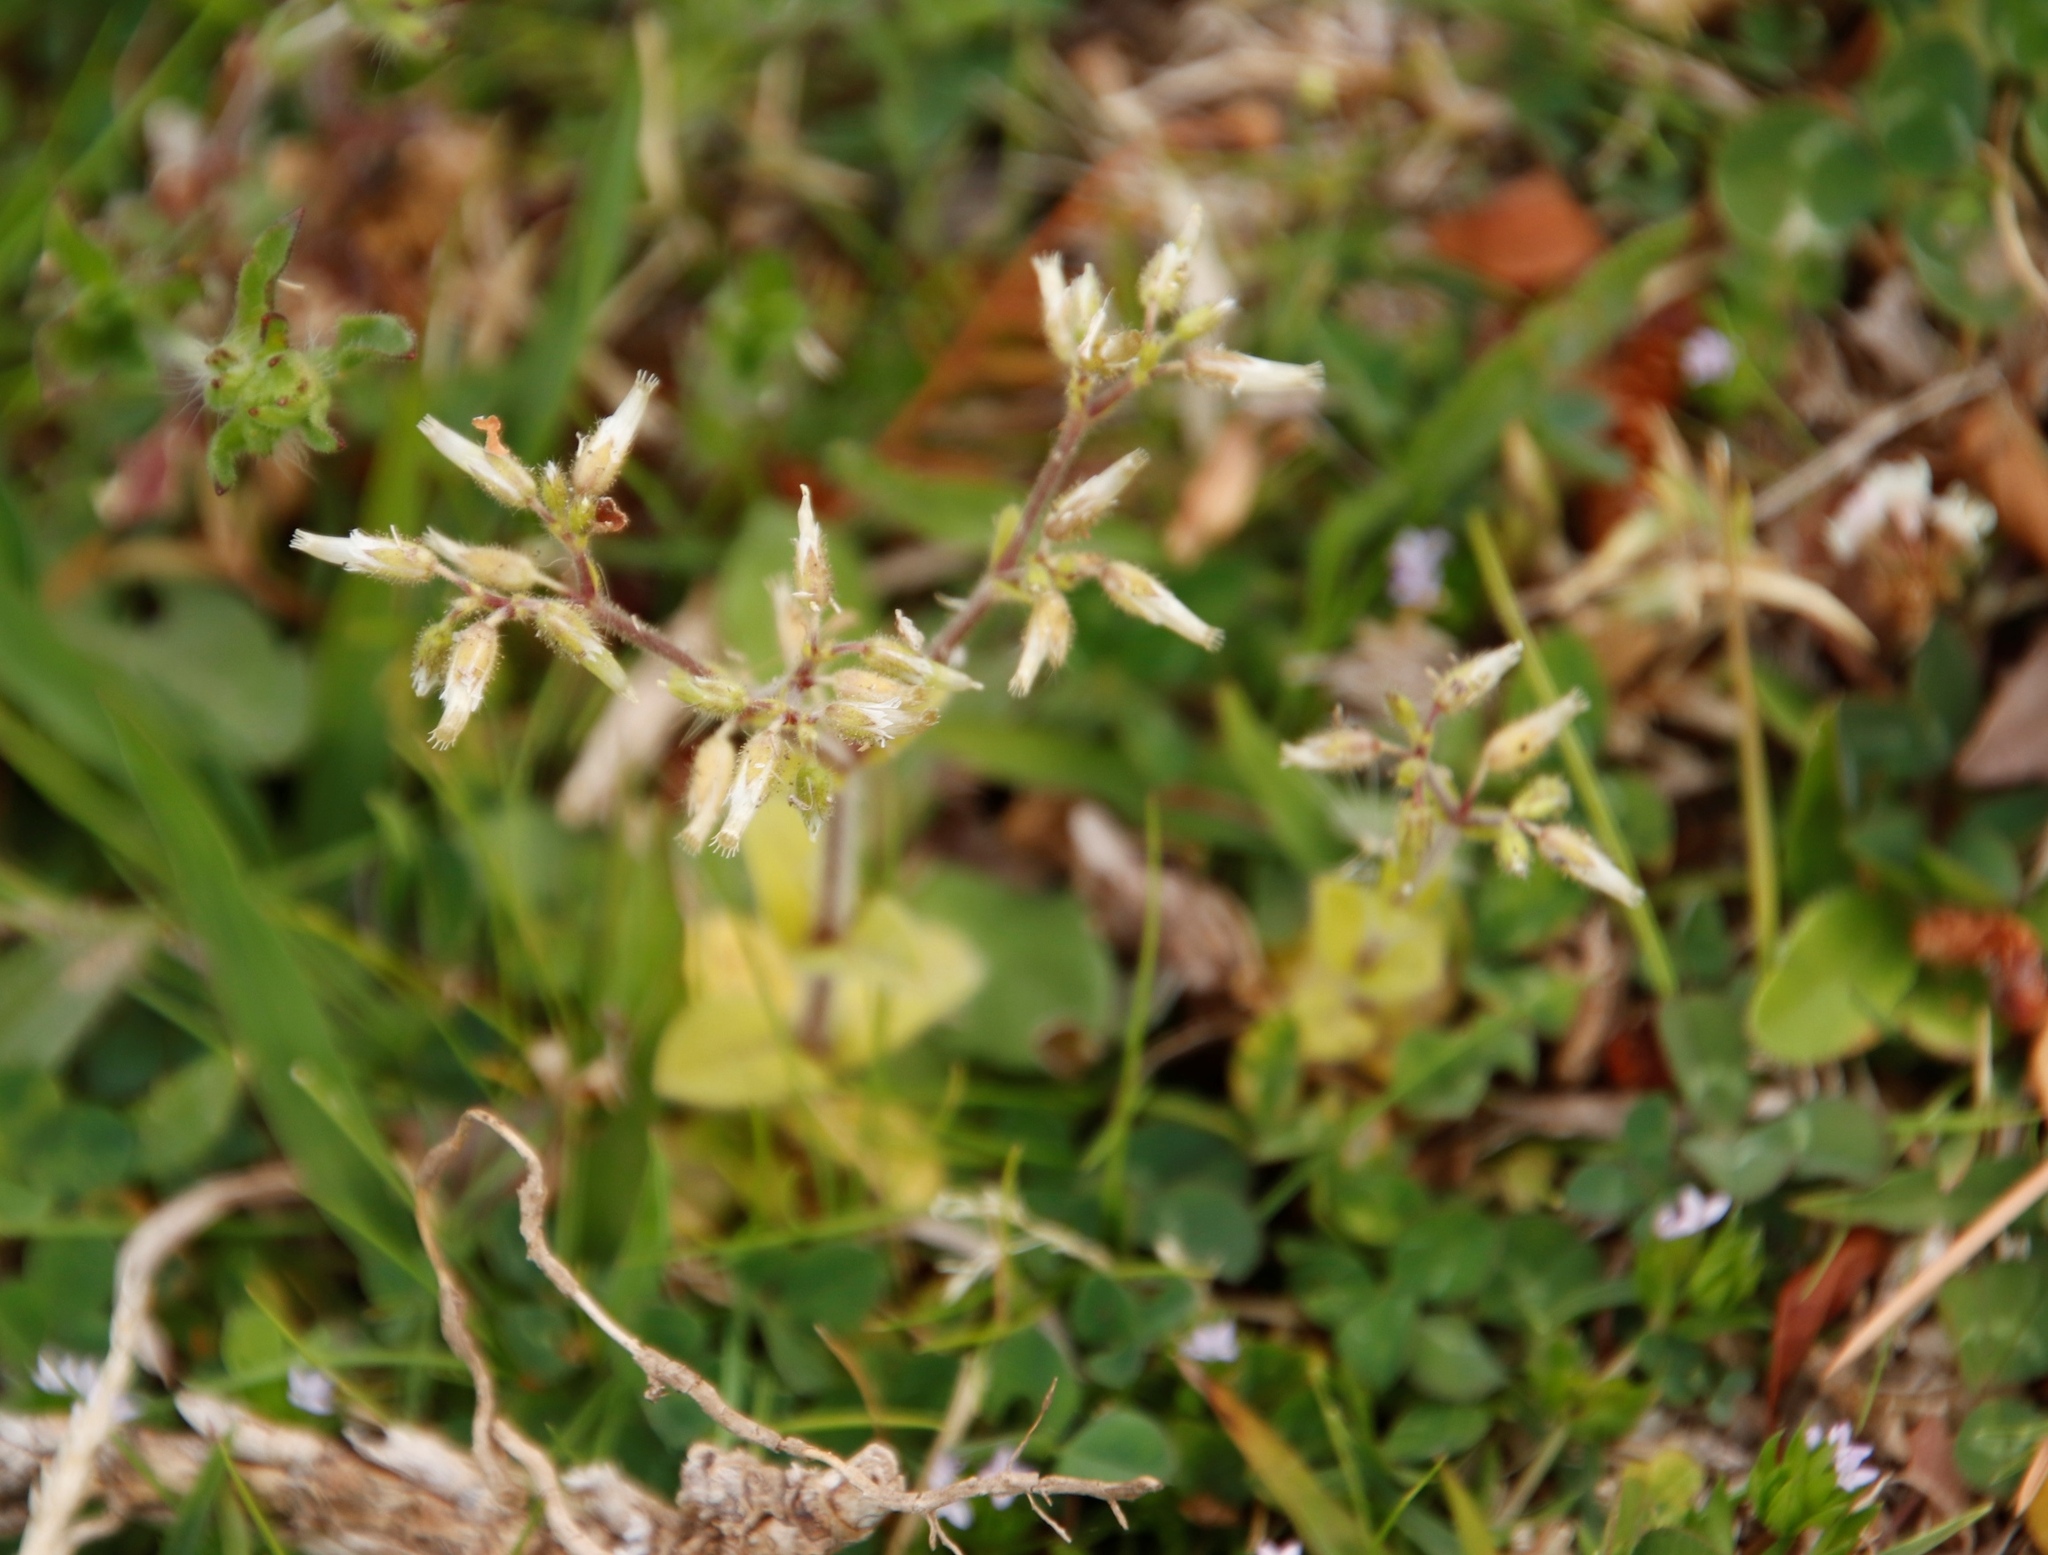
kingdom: Plantae
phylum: Tracheophyta
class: Magnoliopsida
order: Caryophyllales
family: Caryophyllaceae
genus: Cerastium
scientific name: Cerastium glomeratum
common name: Sticky chickweed
